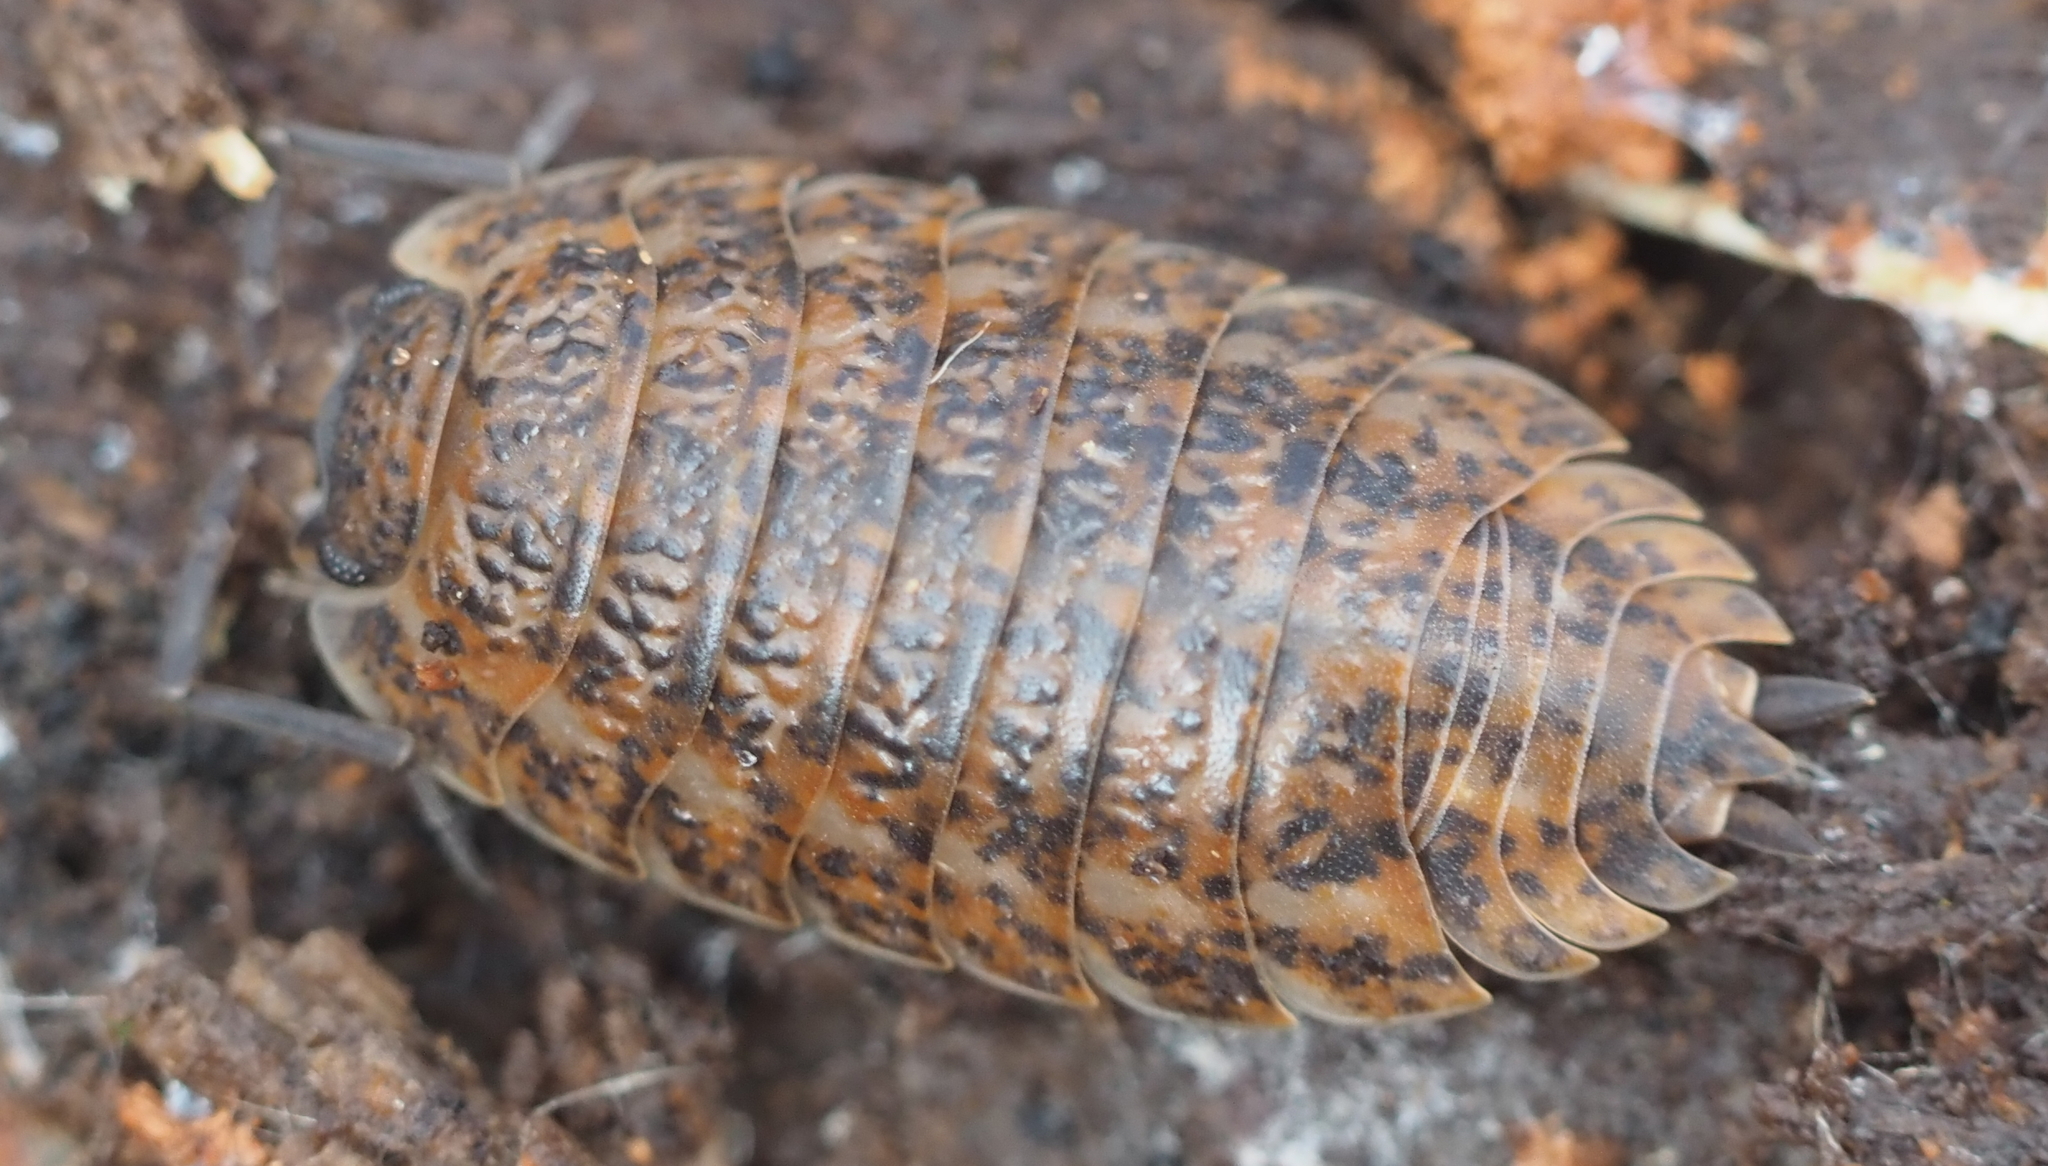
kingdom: Animalia
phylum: Arthropoda
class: Malacostraca
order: Isopoda
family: Trachelipodidae
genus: Trachelipus
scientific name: Trachelipus rathkii
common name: Isopod
